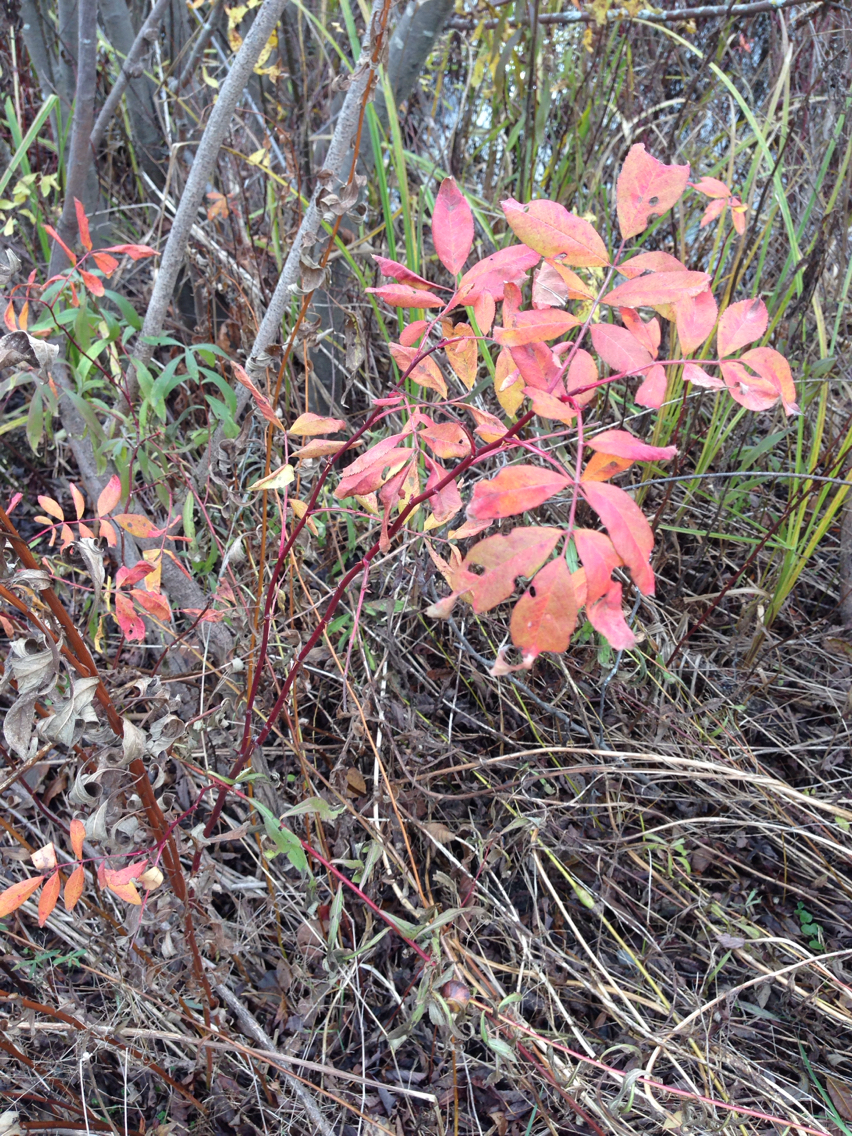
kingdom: Plantae
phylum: Tracheophyta
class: Magnoliopsida
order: Rosales
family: Rosaceae
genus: Rosa
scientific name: Rosa palustris
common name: Swamp rose
